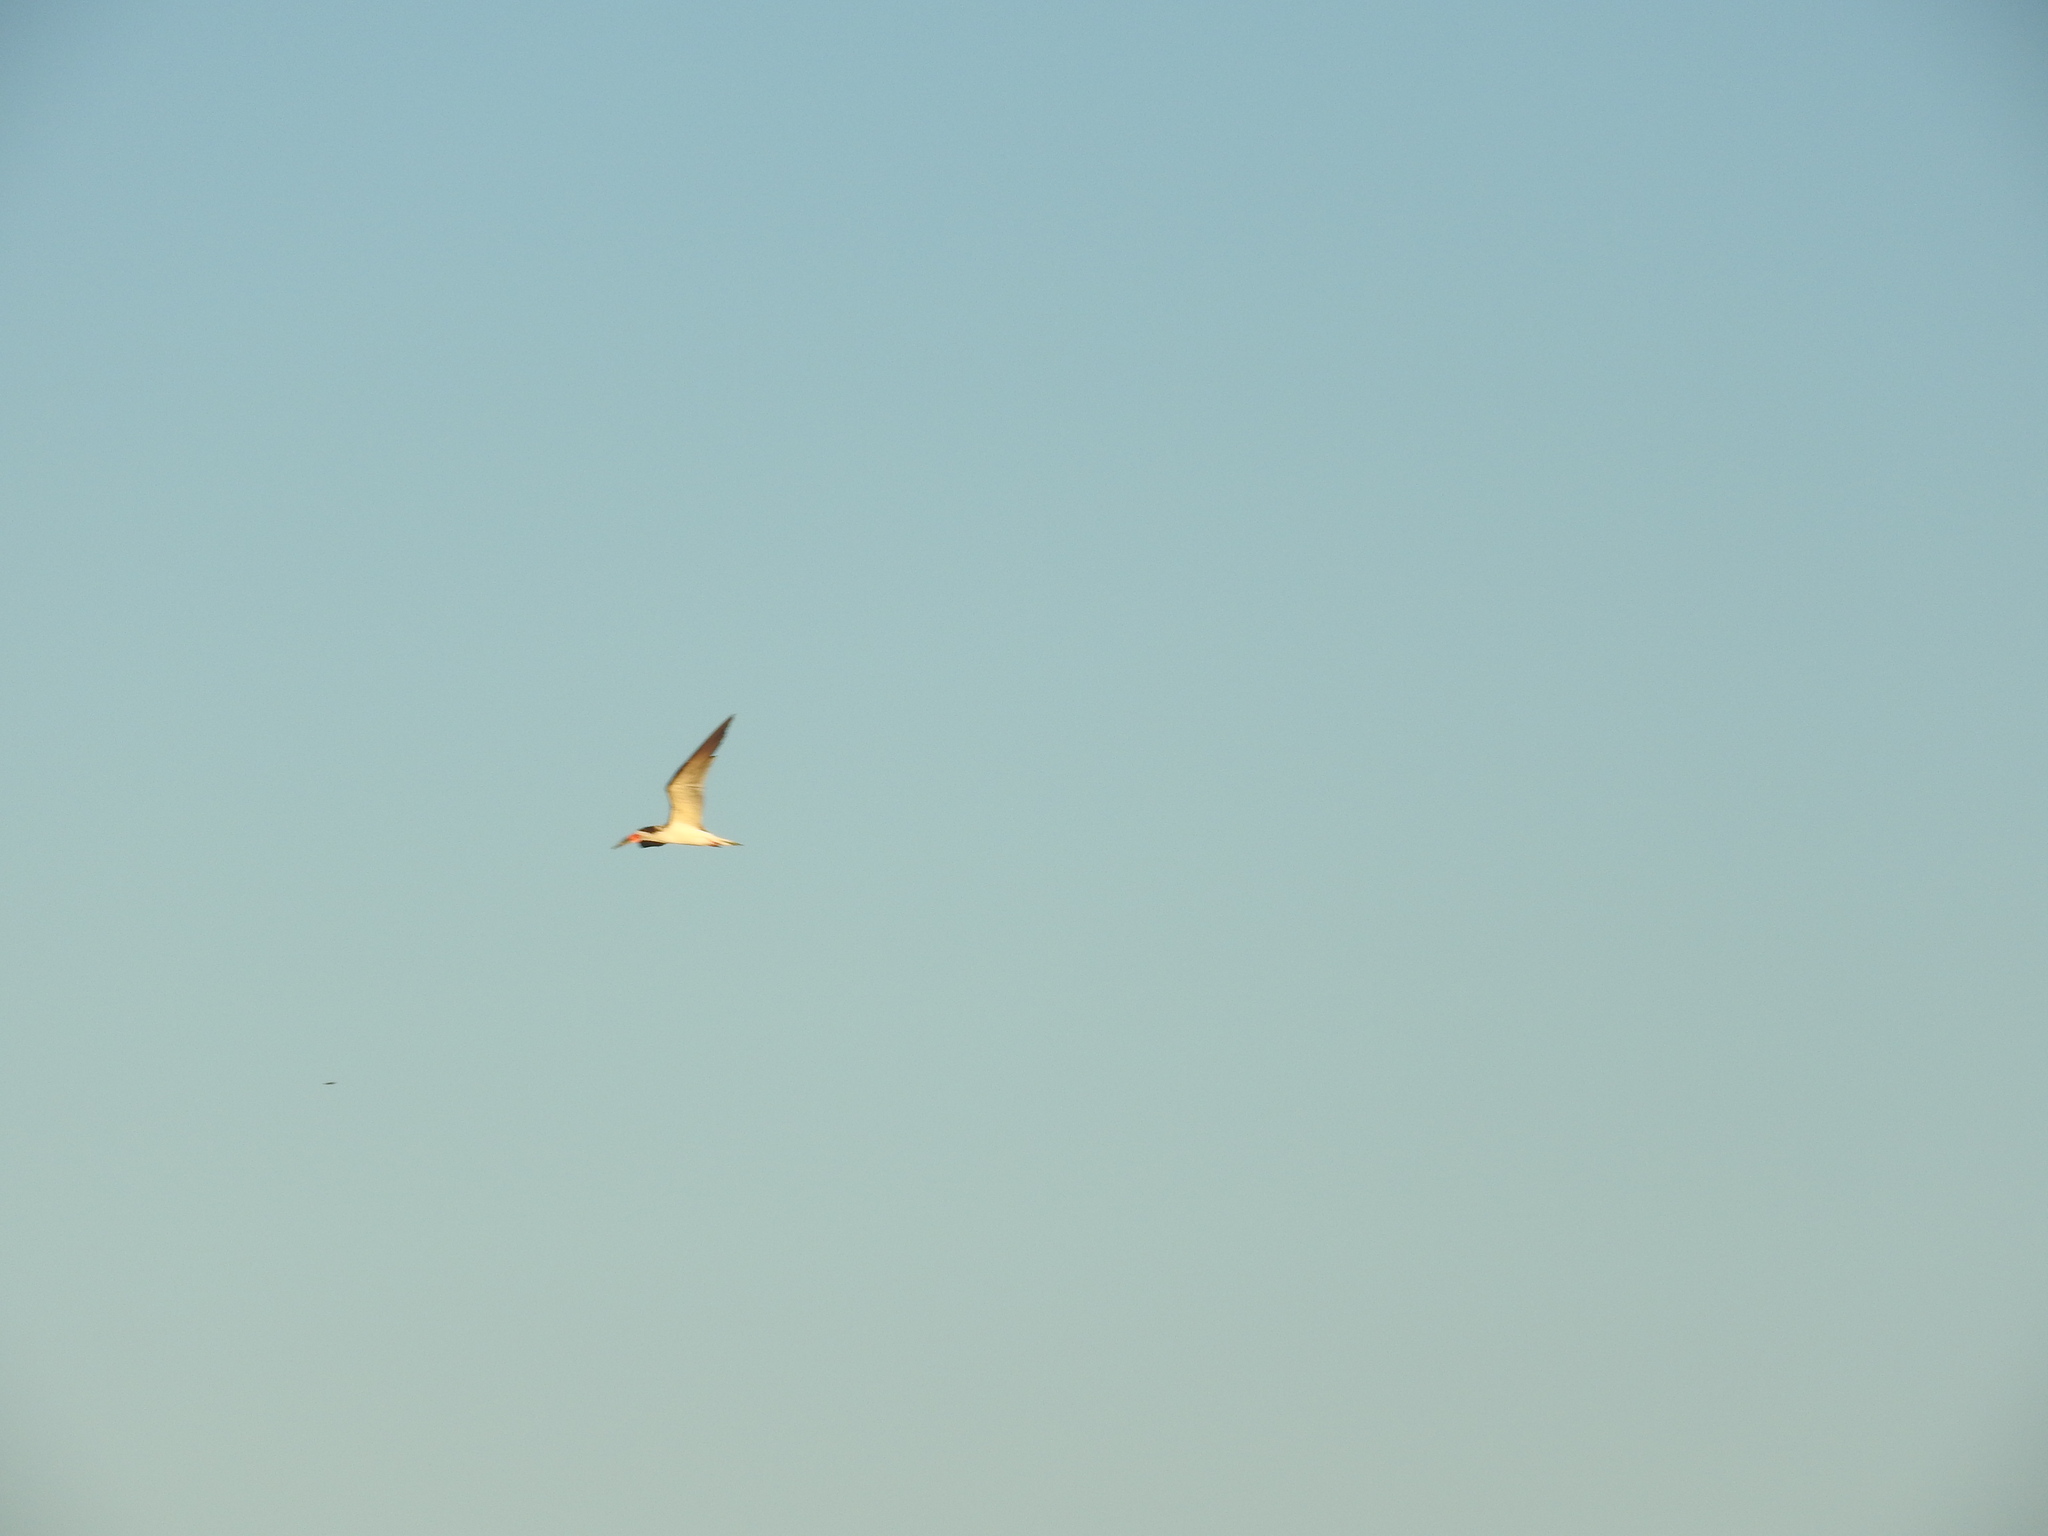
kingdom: Animalia
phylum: Chordata
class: Aves
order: Charadriiformes
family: Laridae
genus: Rynchops
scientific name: Rynchops niger
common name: Black skimmer
